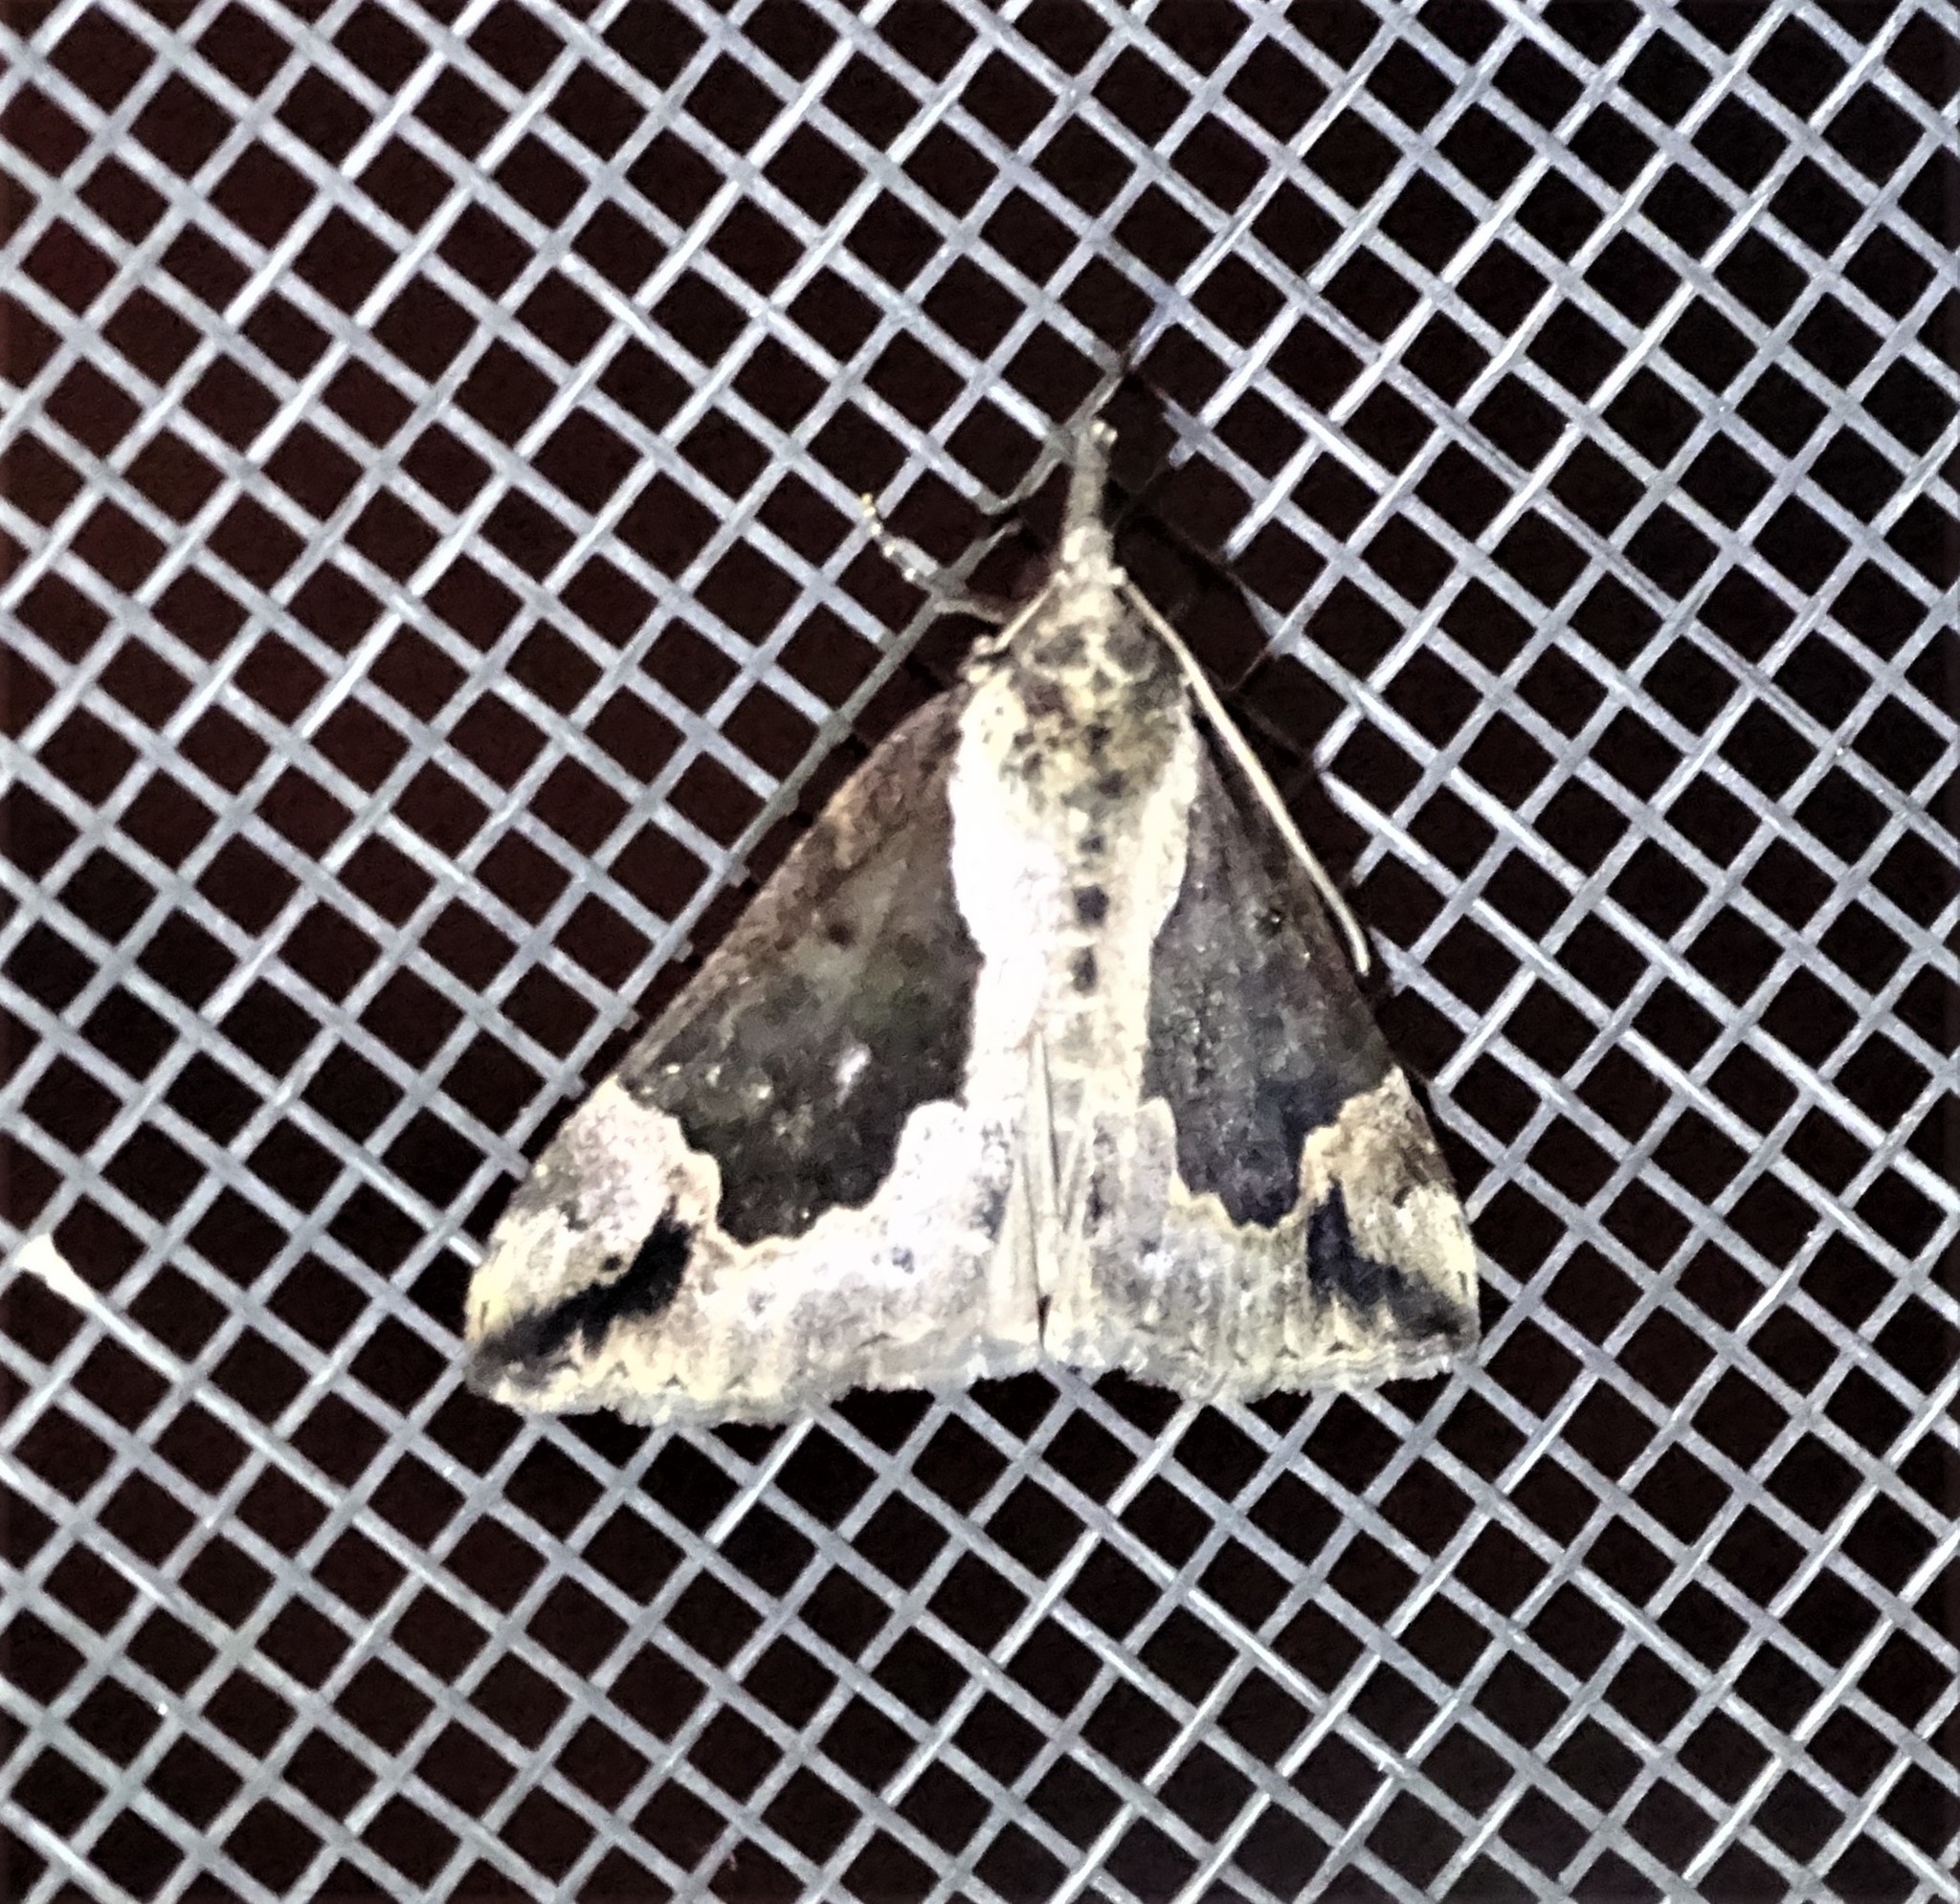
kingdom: Animalia
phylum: Arthropoda
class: Insecta
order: Lepidoptera
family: Erebidae
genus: Hypena
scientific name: Hypena baltimoralis
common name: Baltimore snout
